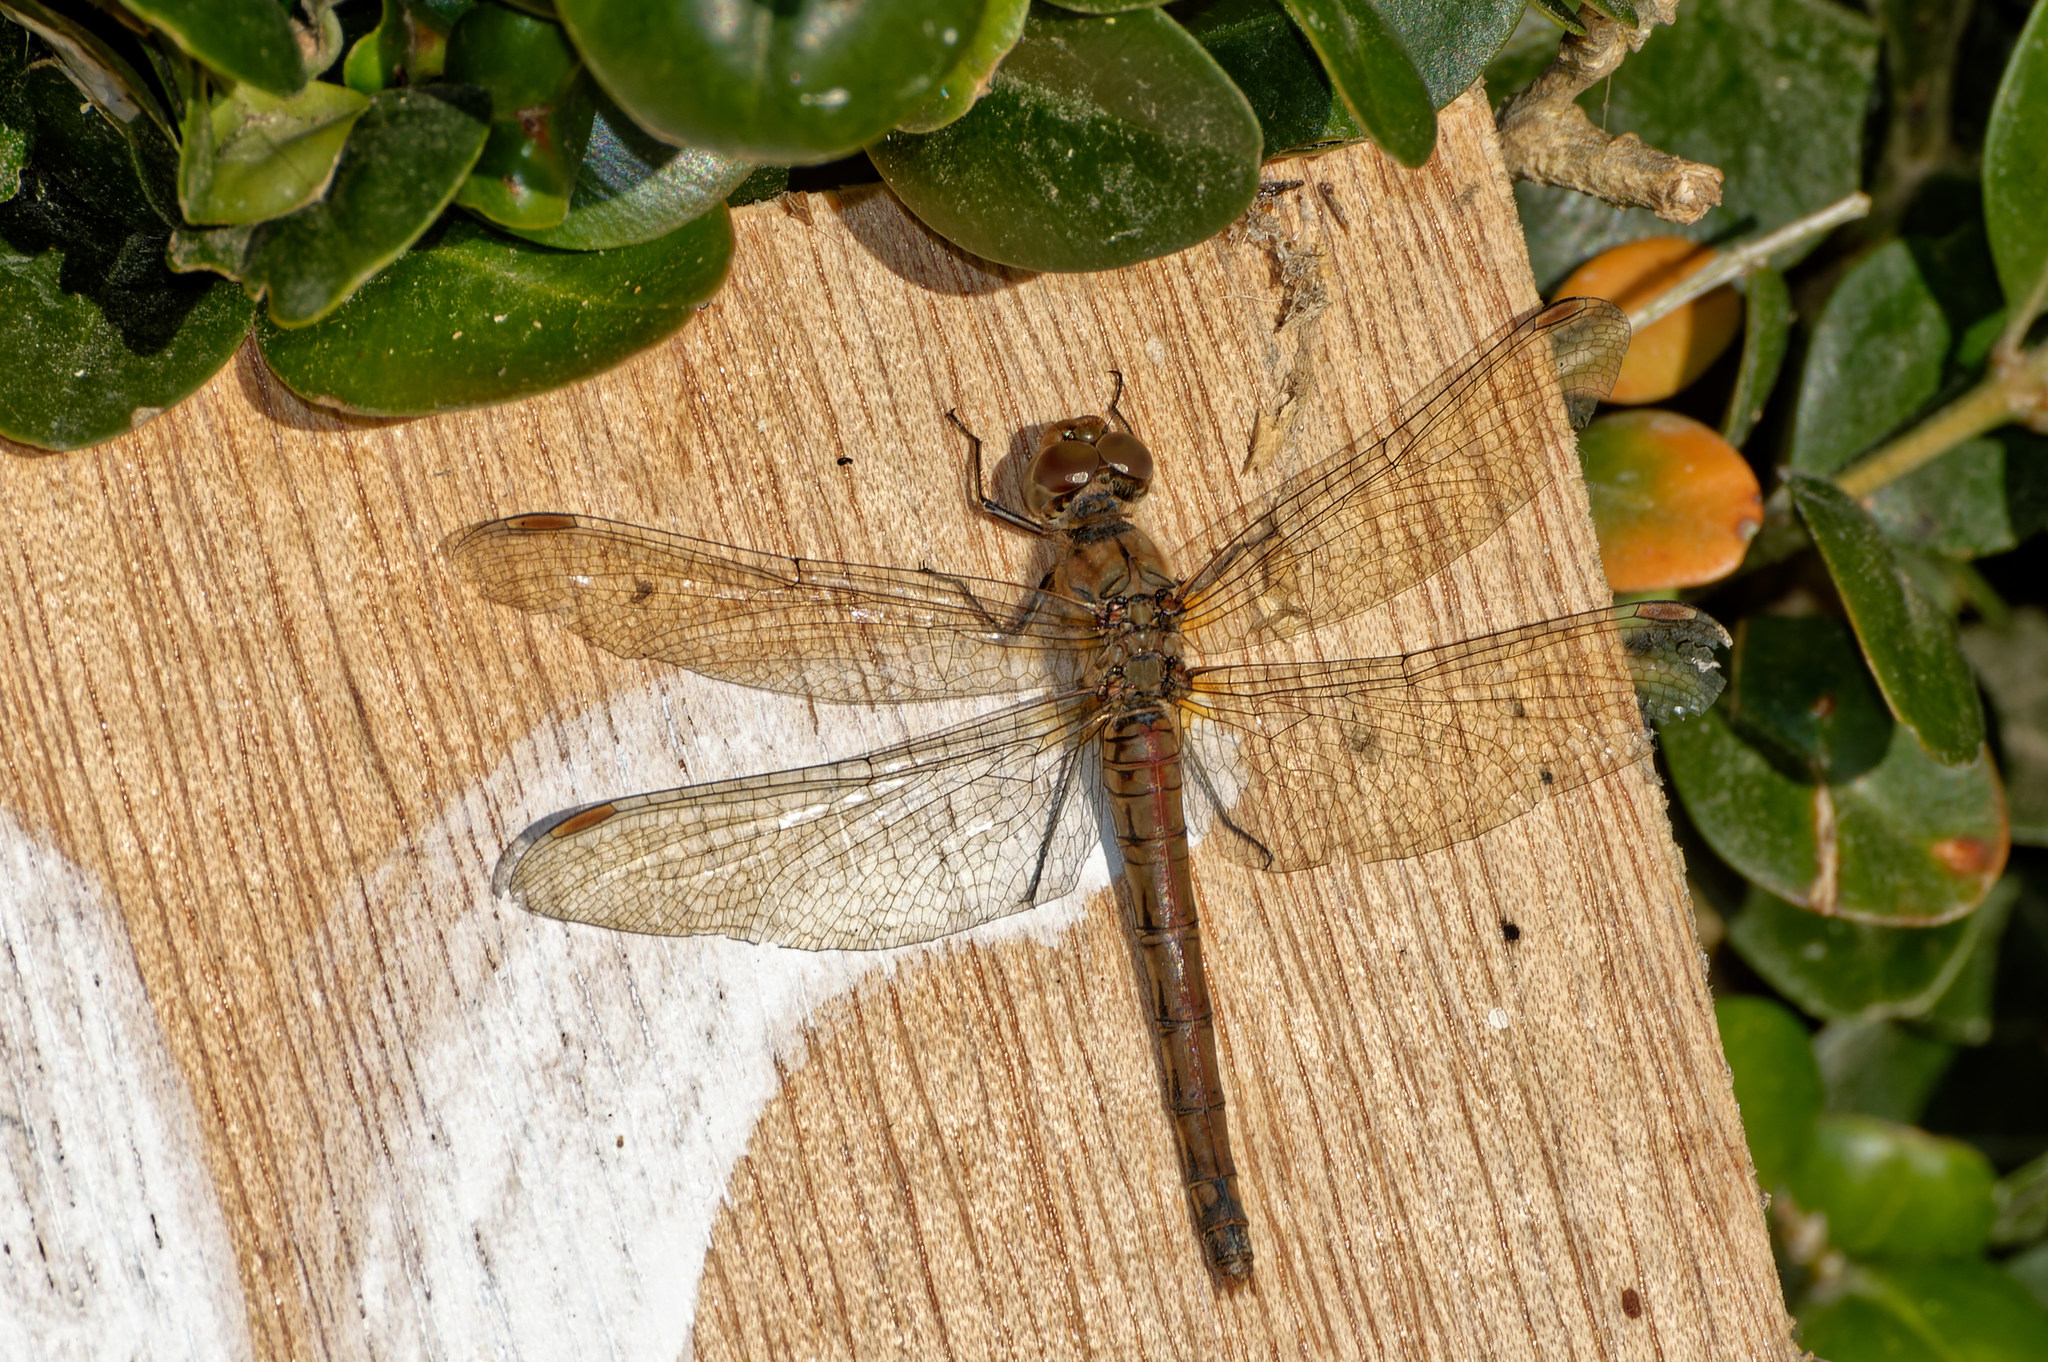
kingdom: Animalia
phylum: Arthropoda
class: Insecta
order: Odonata
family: Libellulidae
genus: Sympetrum
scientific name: Sympetrum striolatum
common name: Common darter
